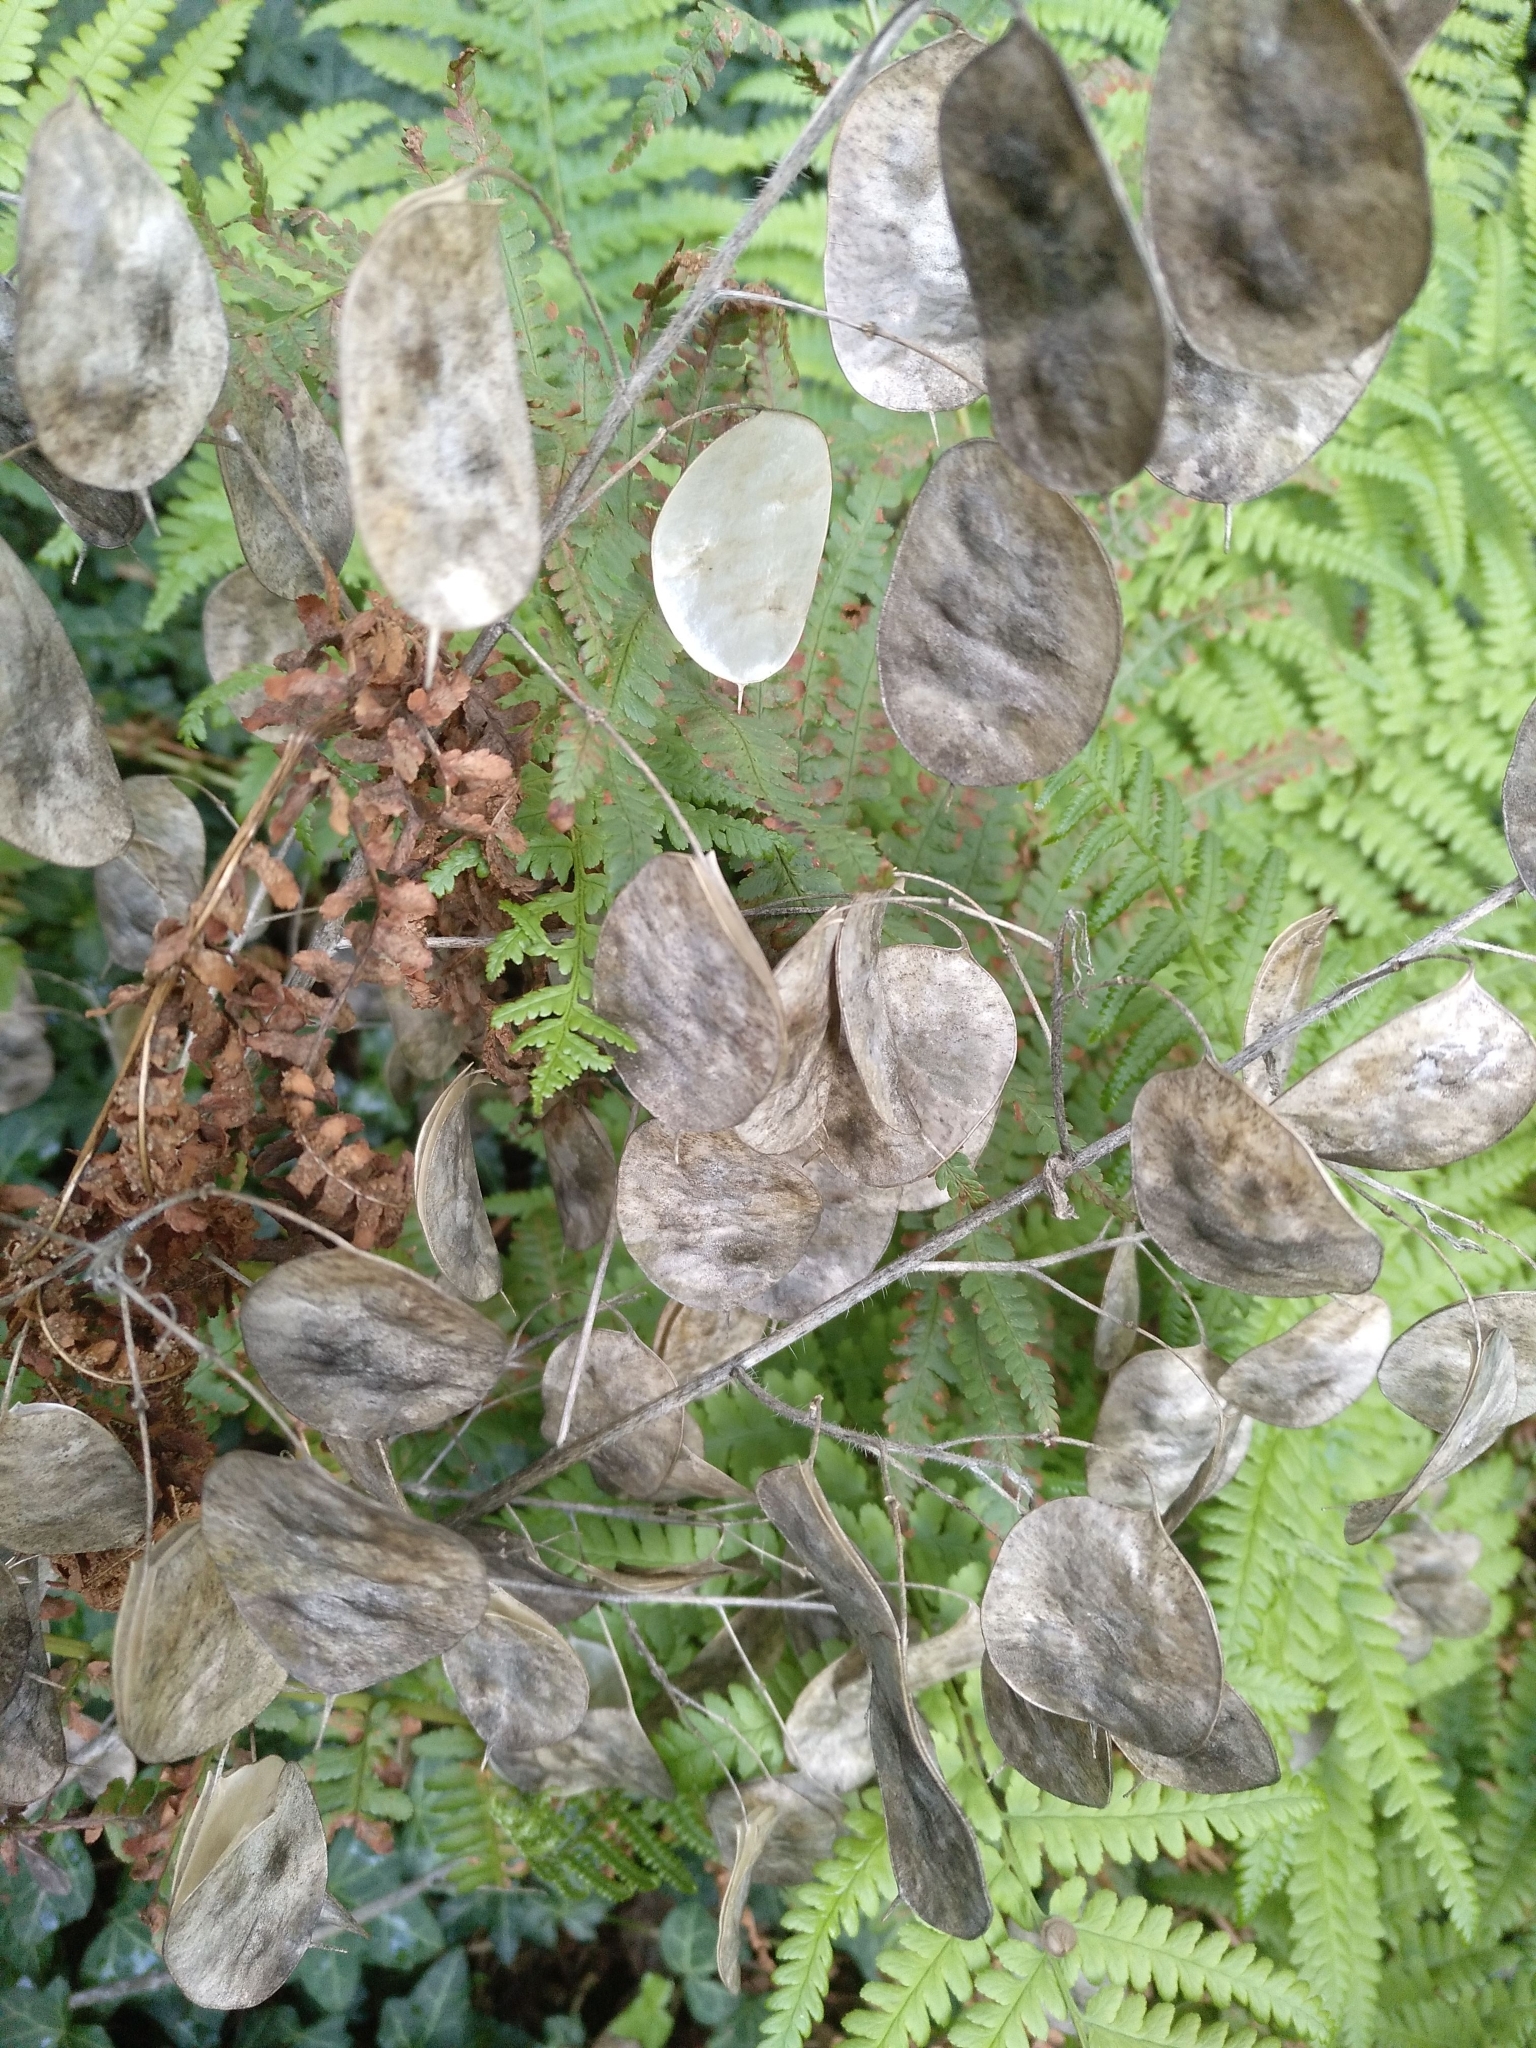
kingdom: Plantae
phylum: Tracheophyta
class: Magnoliopsida
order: Brassicales
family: Brassicaceae
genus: Lunaria
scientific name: Lunaria annua
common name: Honesty
